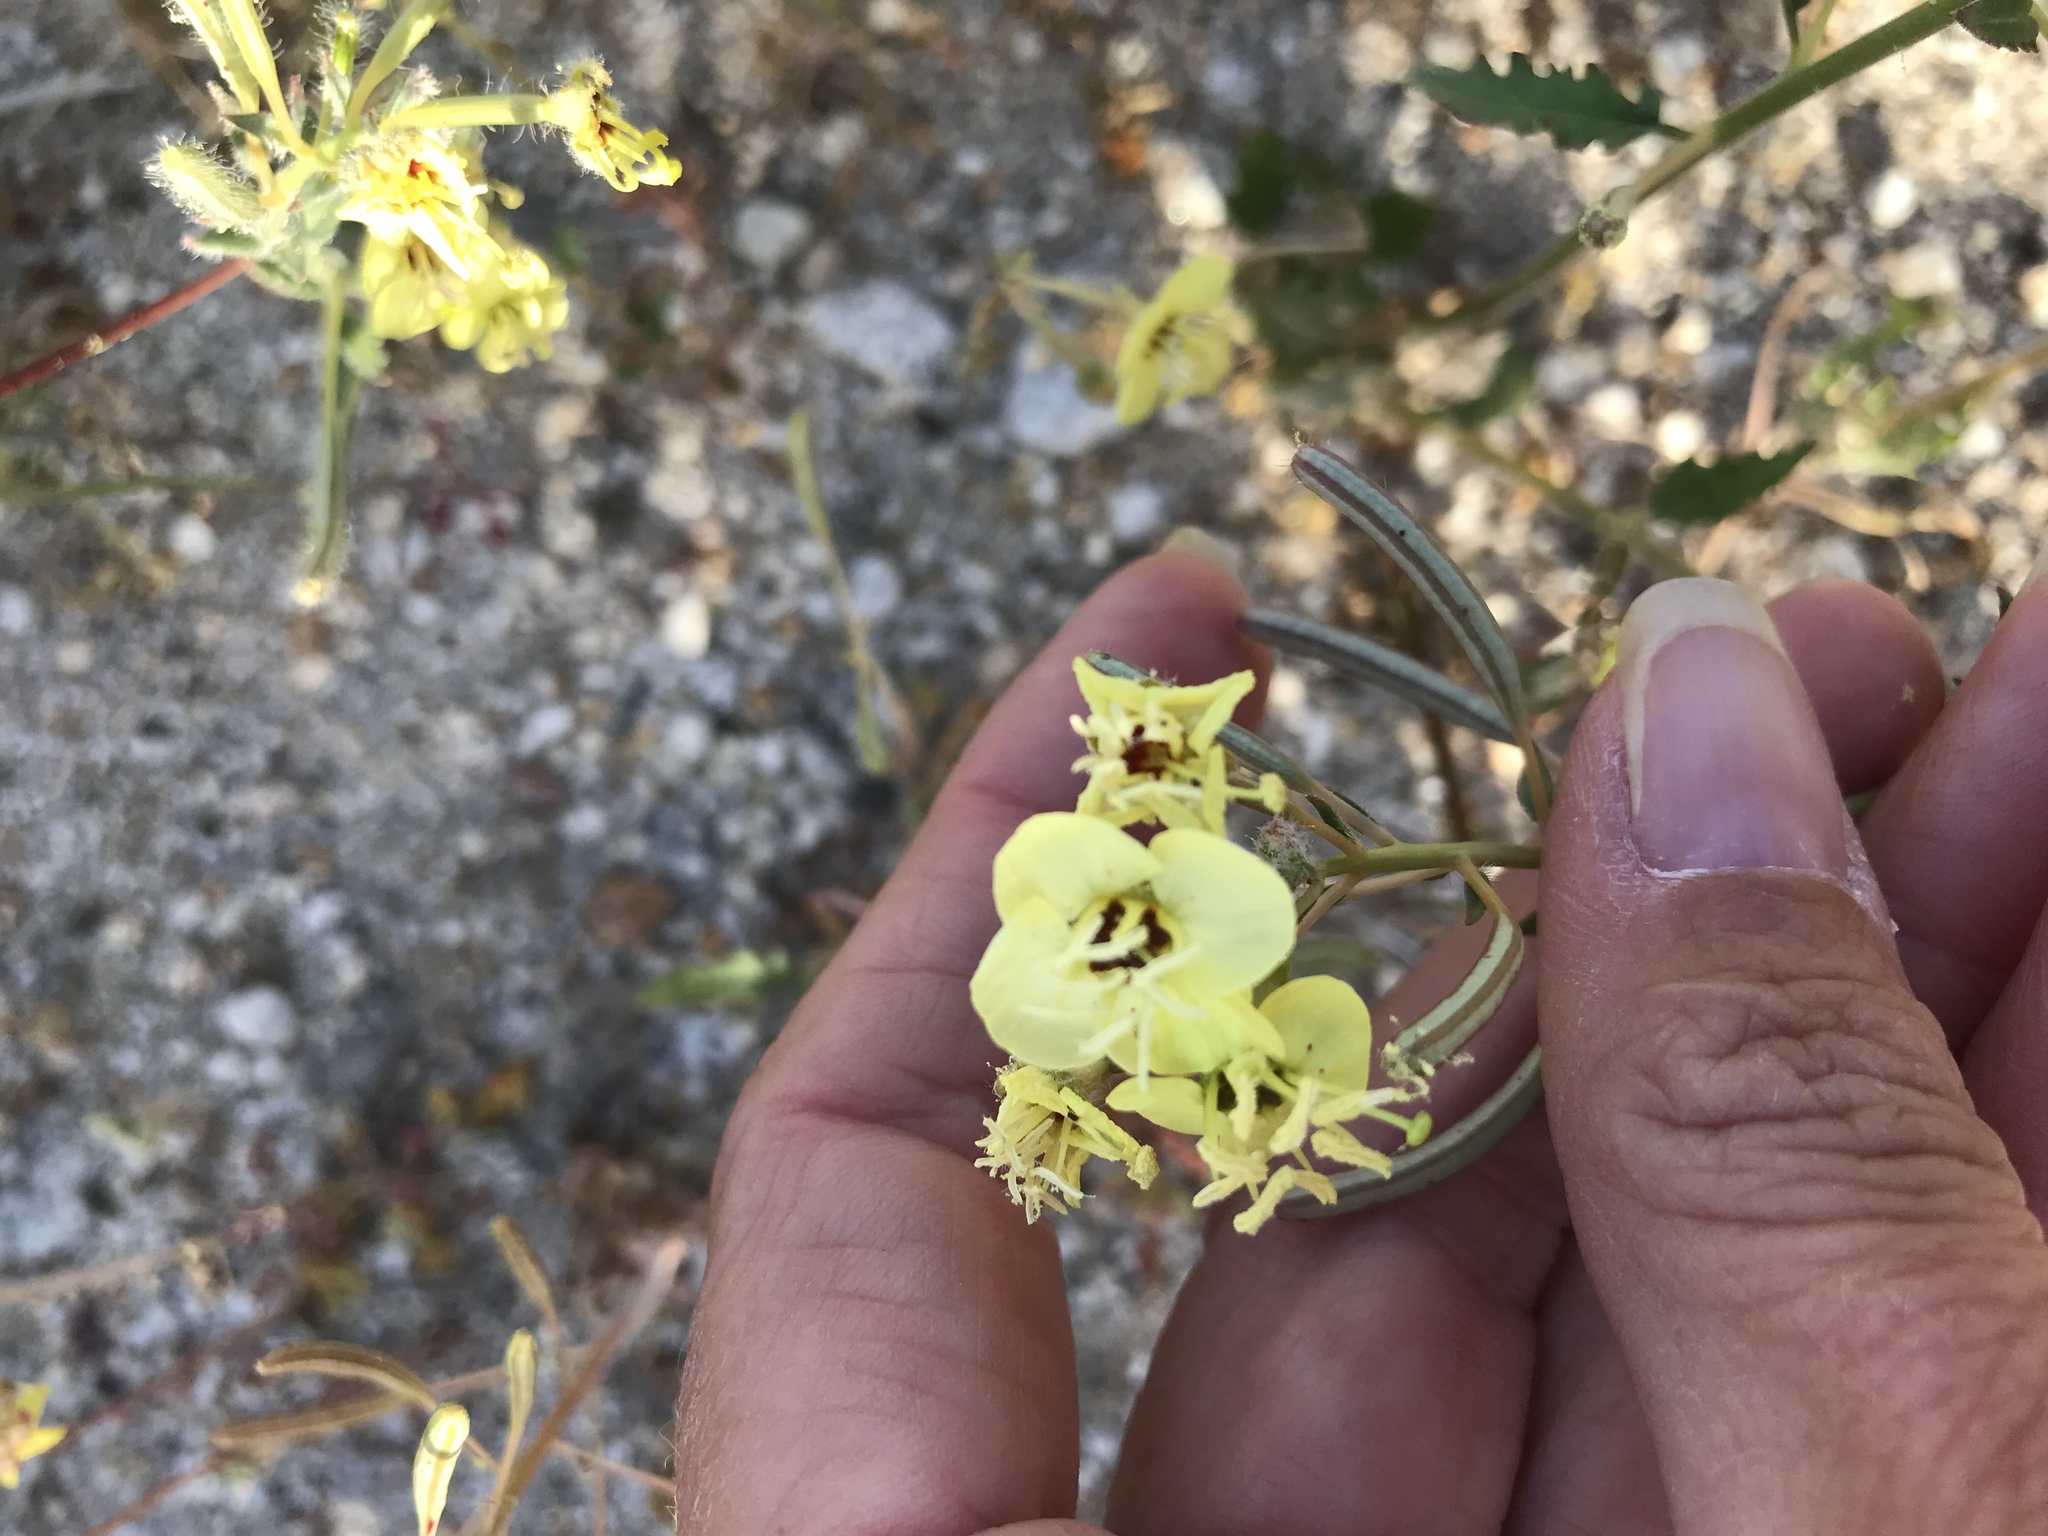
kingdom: Plantae
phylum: Tracheophyta
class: Magnoliopsida
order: Myrtales
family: Onagraceae
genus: Chylismia
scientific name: Chylismia claviformis
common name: Browneyes
